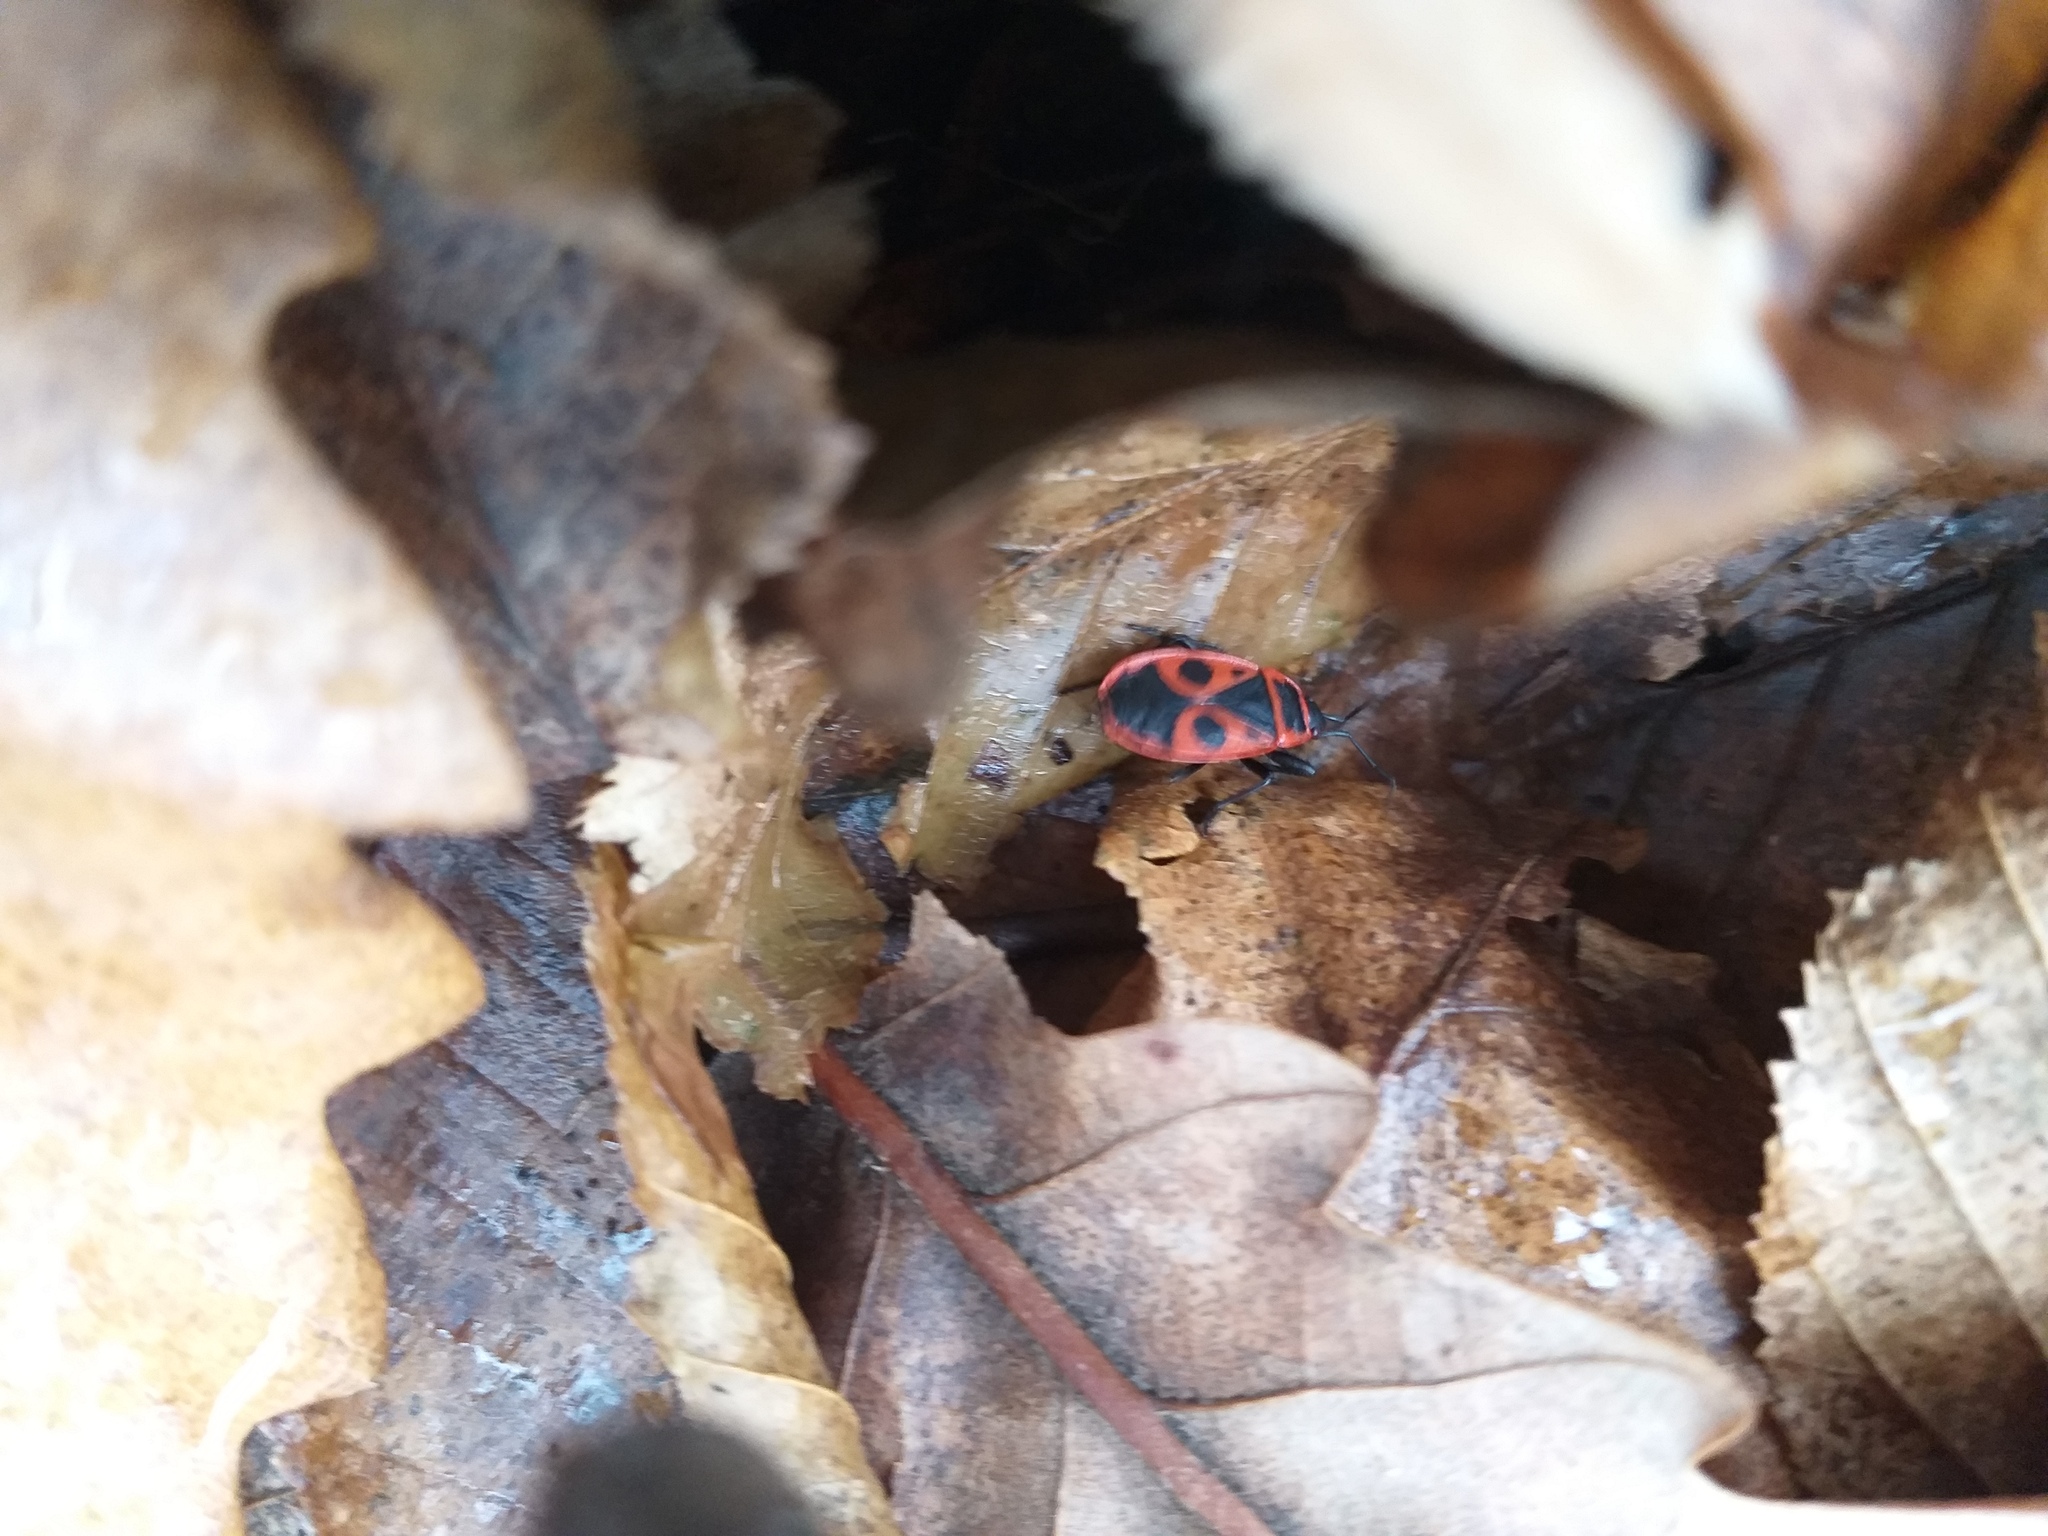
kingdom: Animalia
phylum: Arthropoda
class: Insecta
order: Hemiptera
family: Pyrrhocoridae
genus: Pyrrhocoris
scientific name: Pyrrhocoris apterus
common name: Firebug
